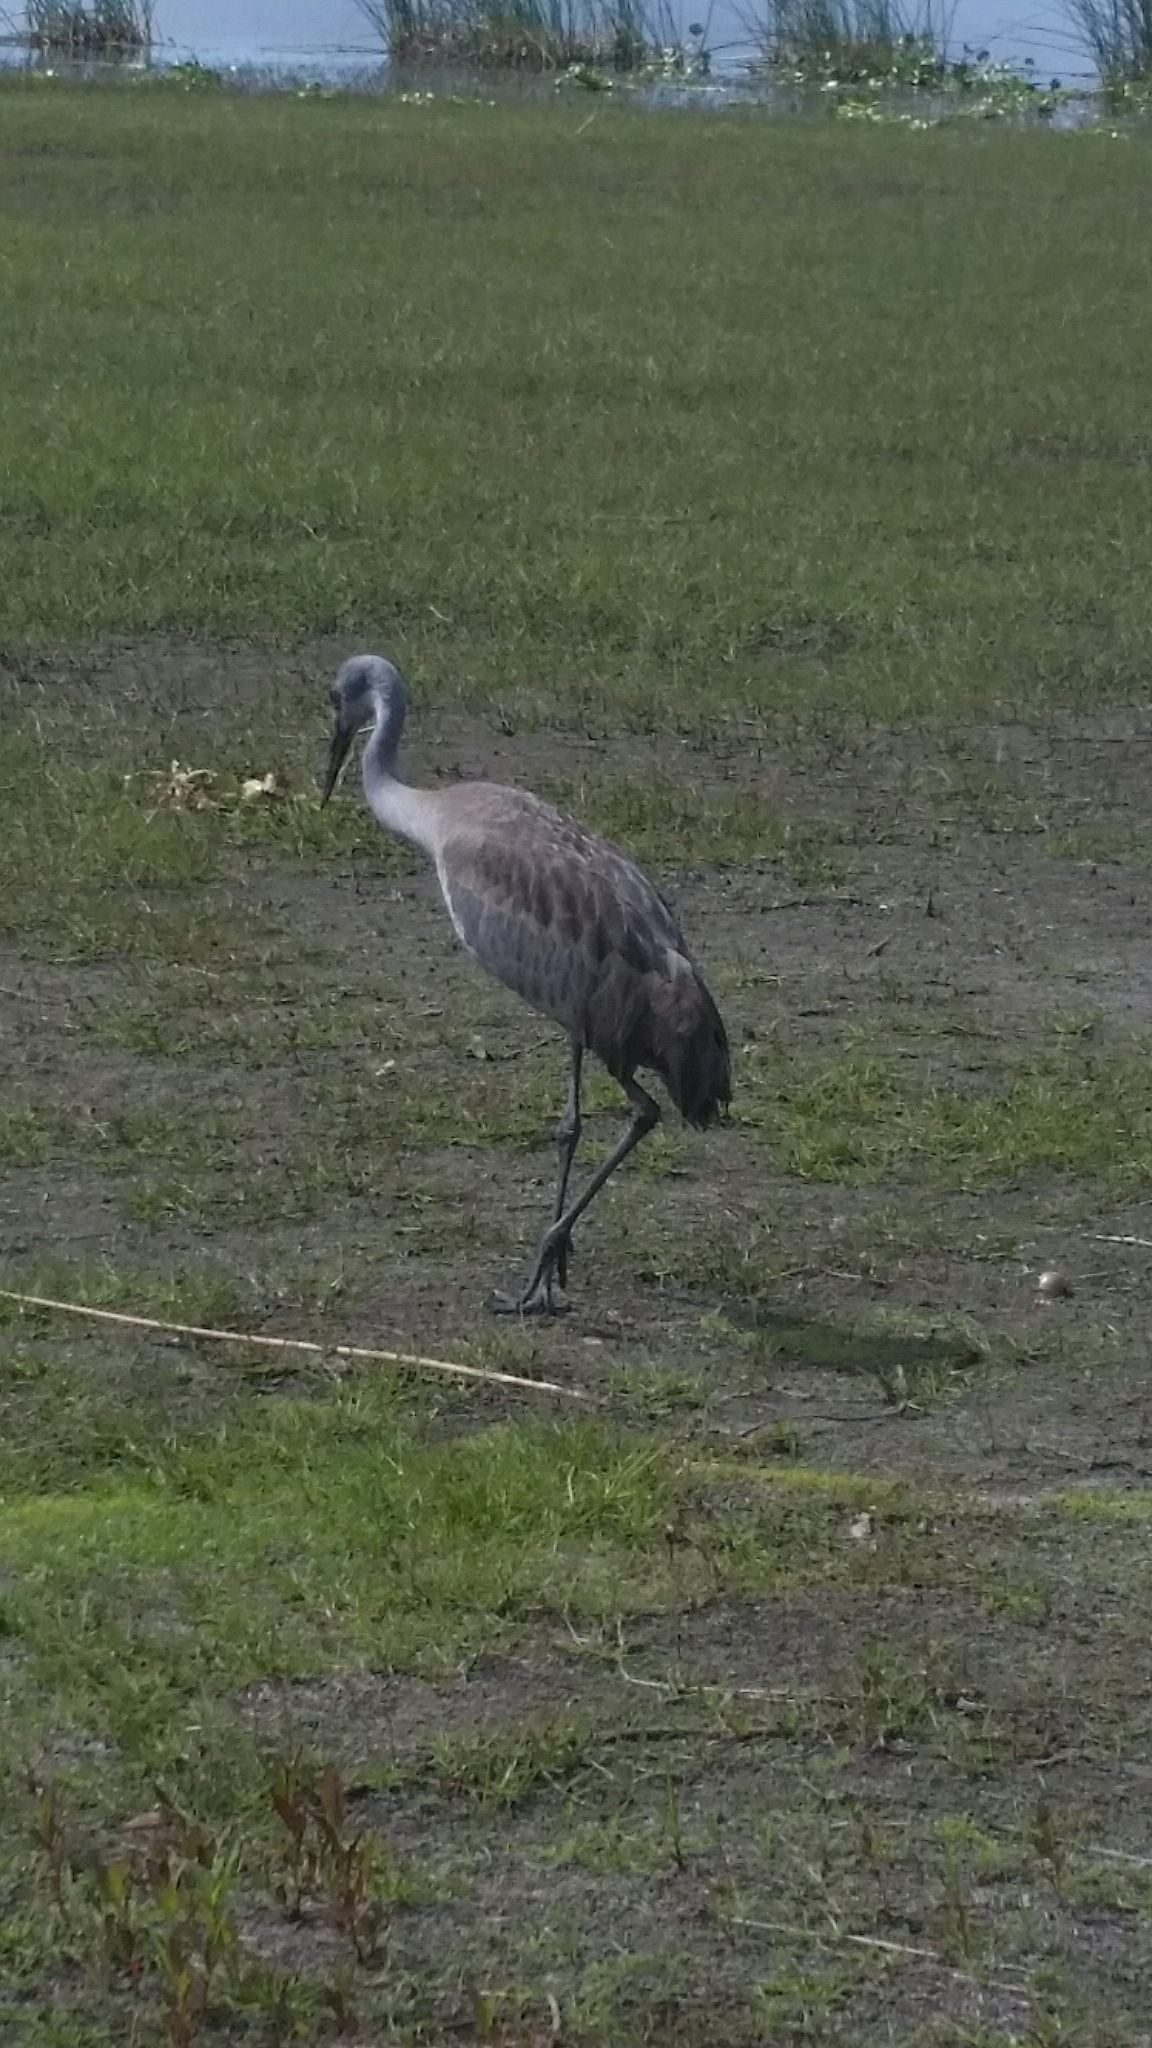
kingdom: Animalia
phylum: Chordata
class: Aves
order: Gruiformes
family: Gruidae
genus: Grus
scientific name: Grus canadensis
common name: Sandhill crane
